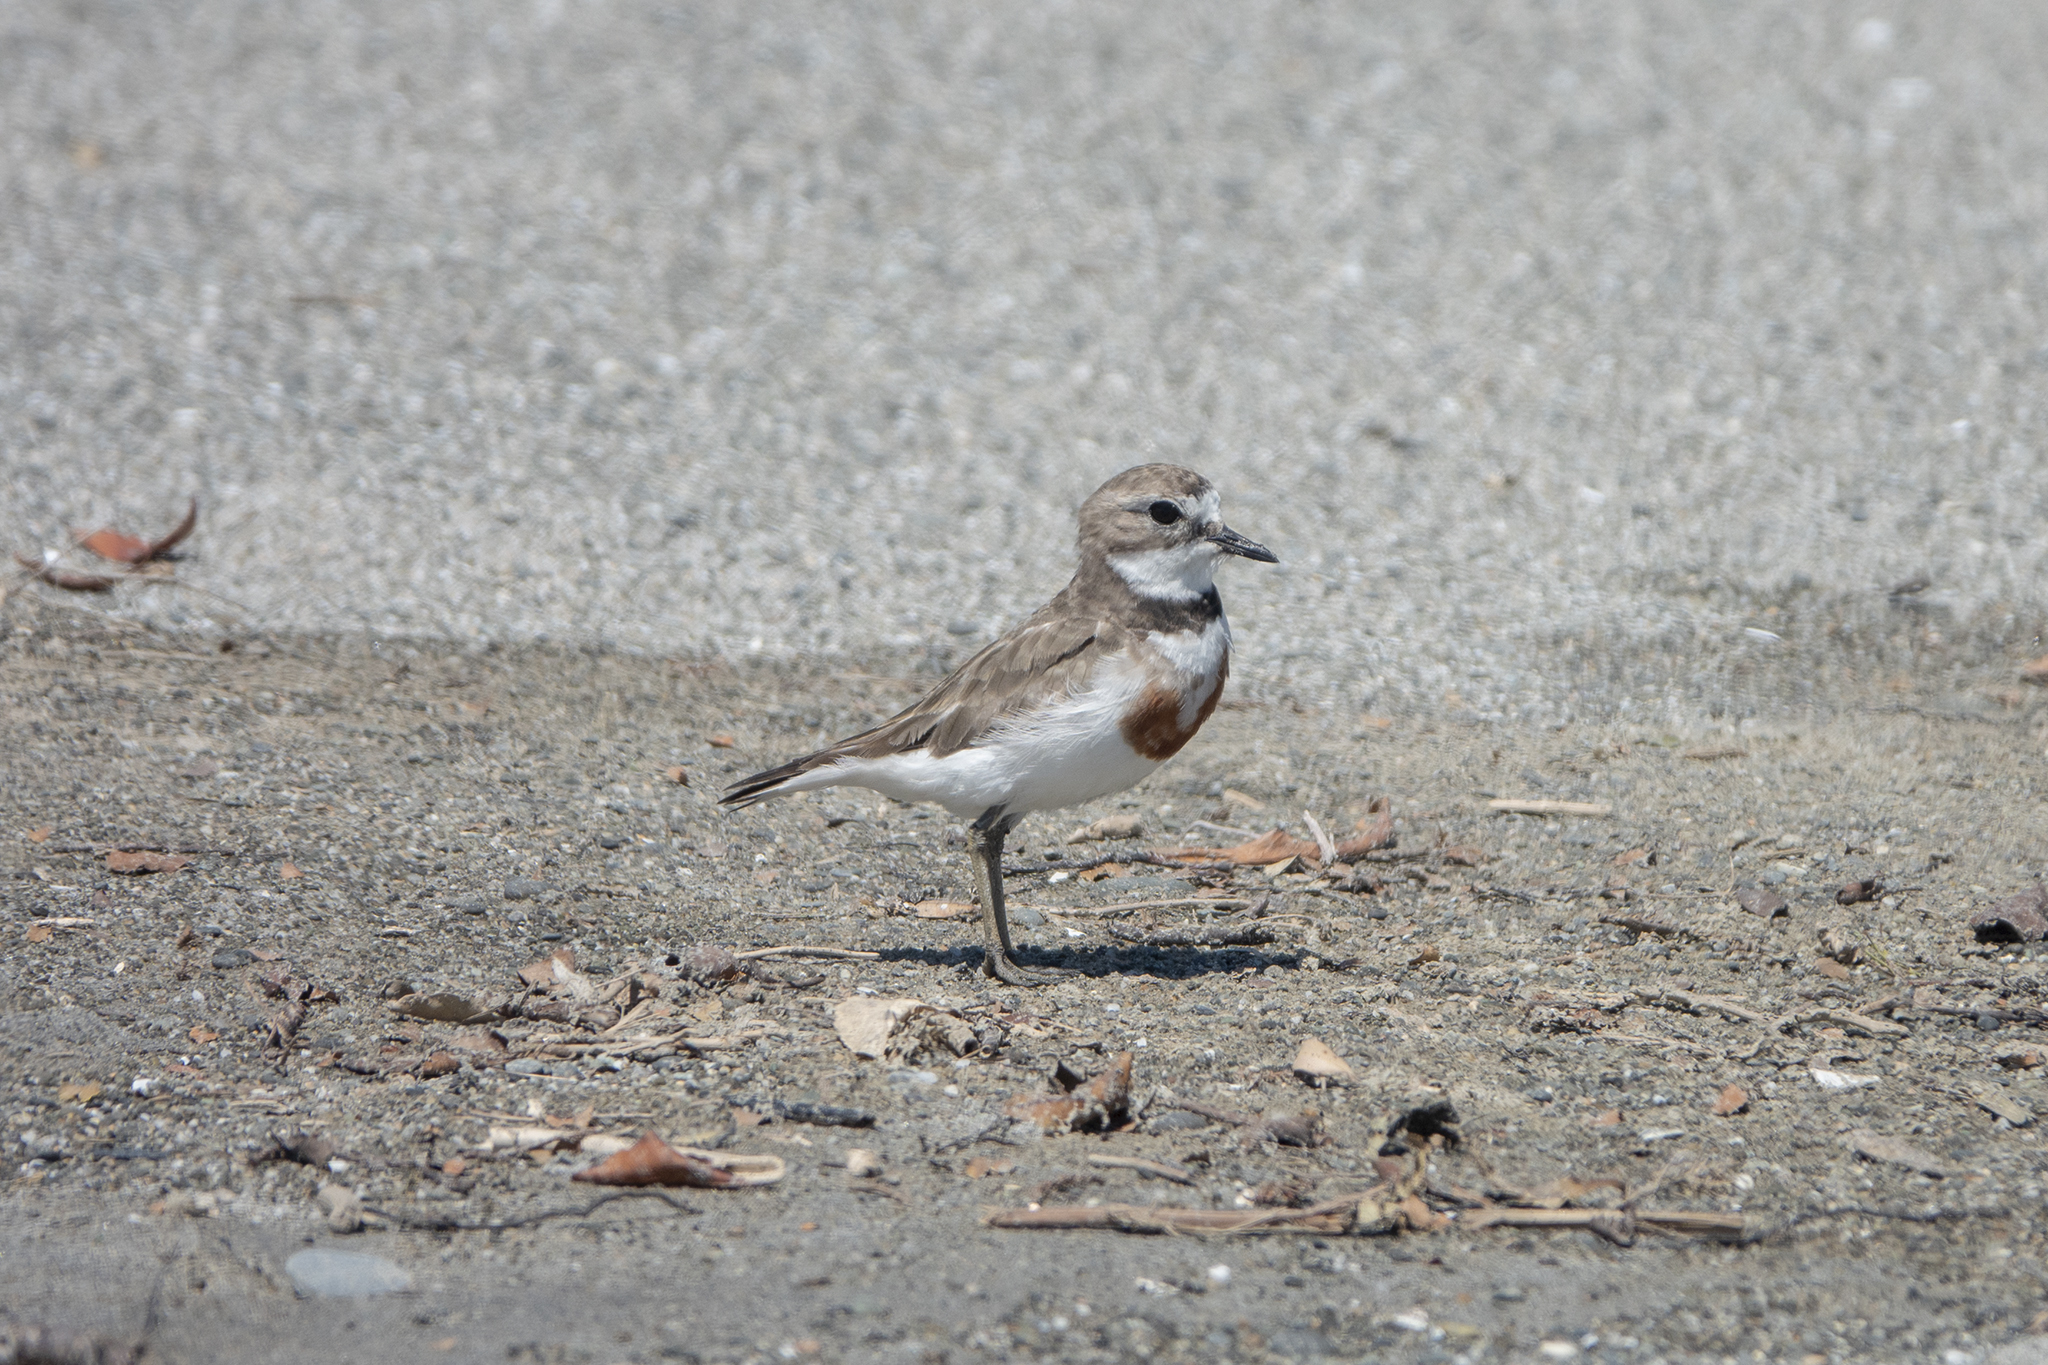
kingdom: Animalia
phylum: Chordata
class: Aves
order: Charadriiformes
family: Charadriidae
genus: Anarhynchus
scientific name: Anarhynchus
